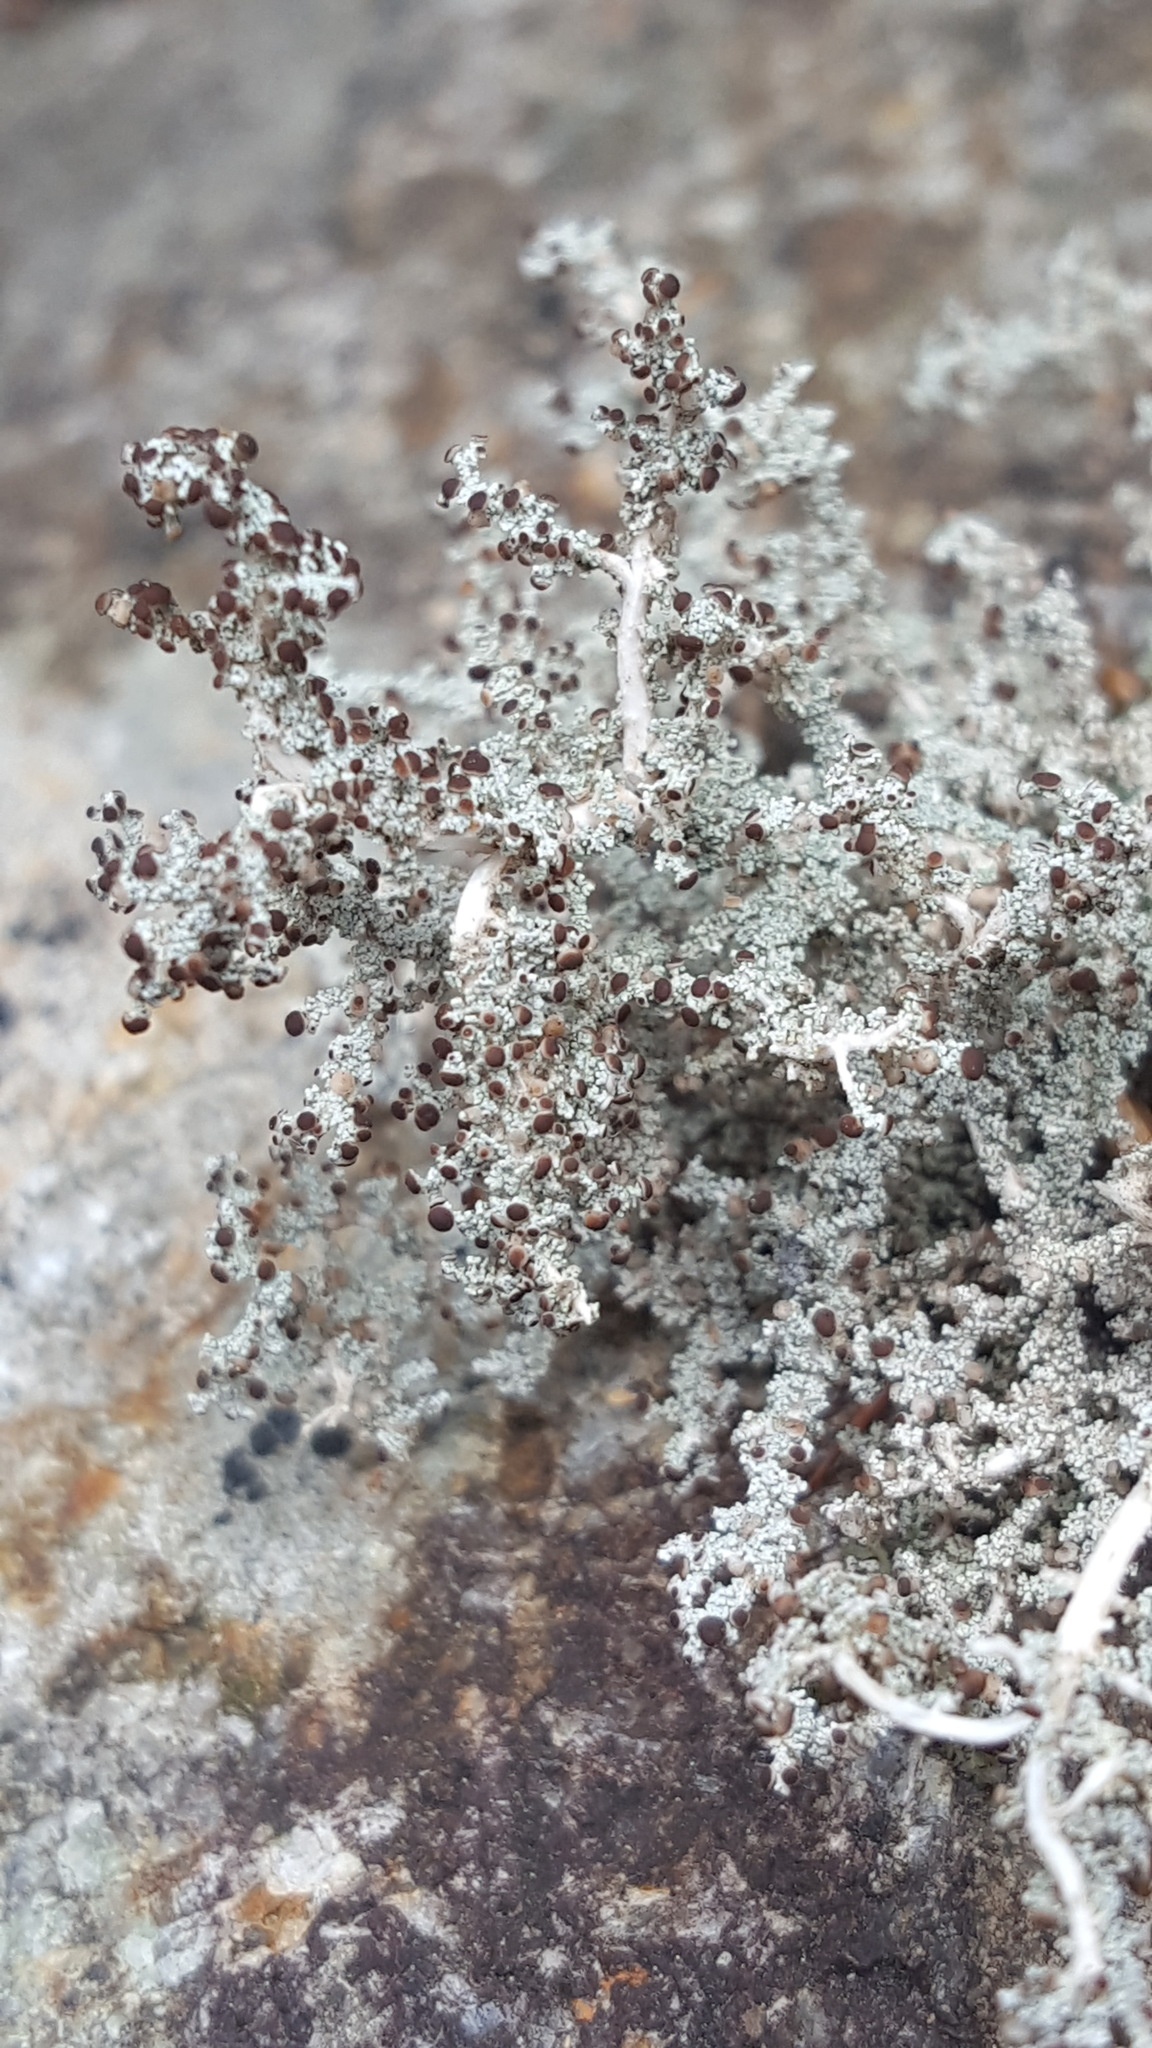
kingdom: Fungi
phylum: Ascomycota
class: Lecanoromycetes
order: Lecanorales
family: Stereocaulaceae
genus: Stereocaulon
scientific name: Stereocaulon saxatile
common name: Rock foam
